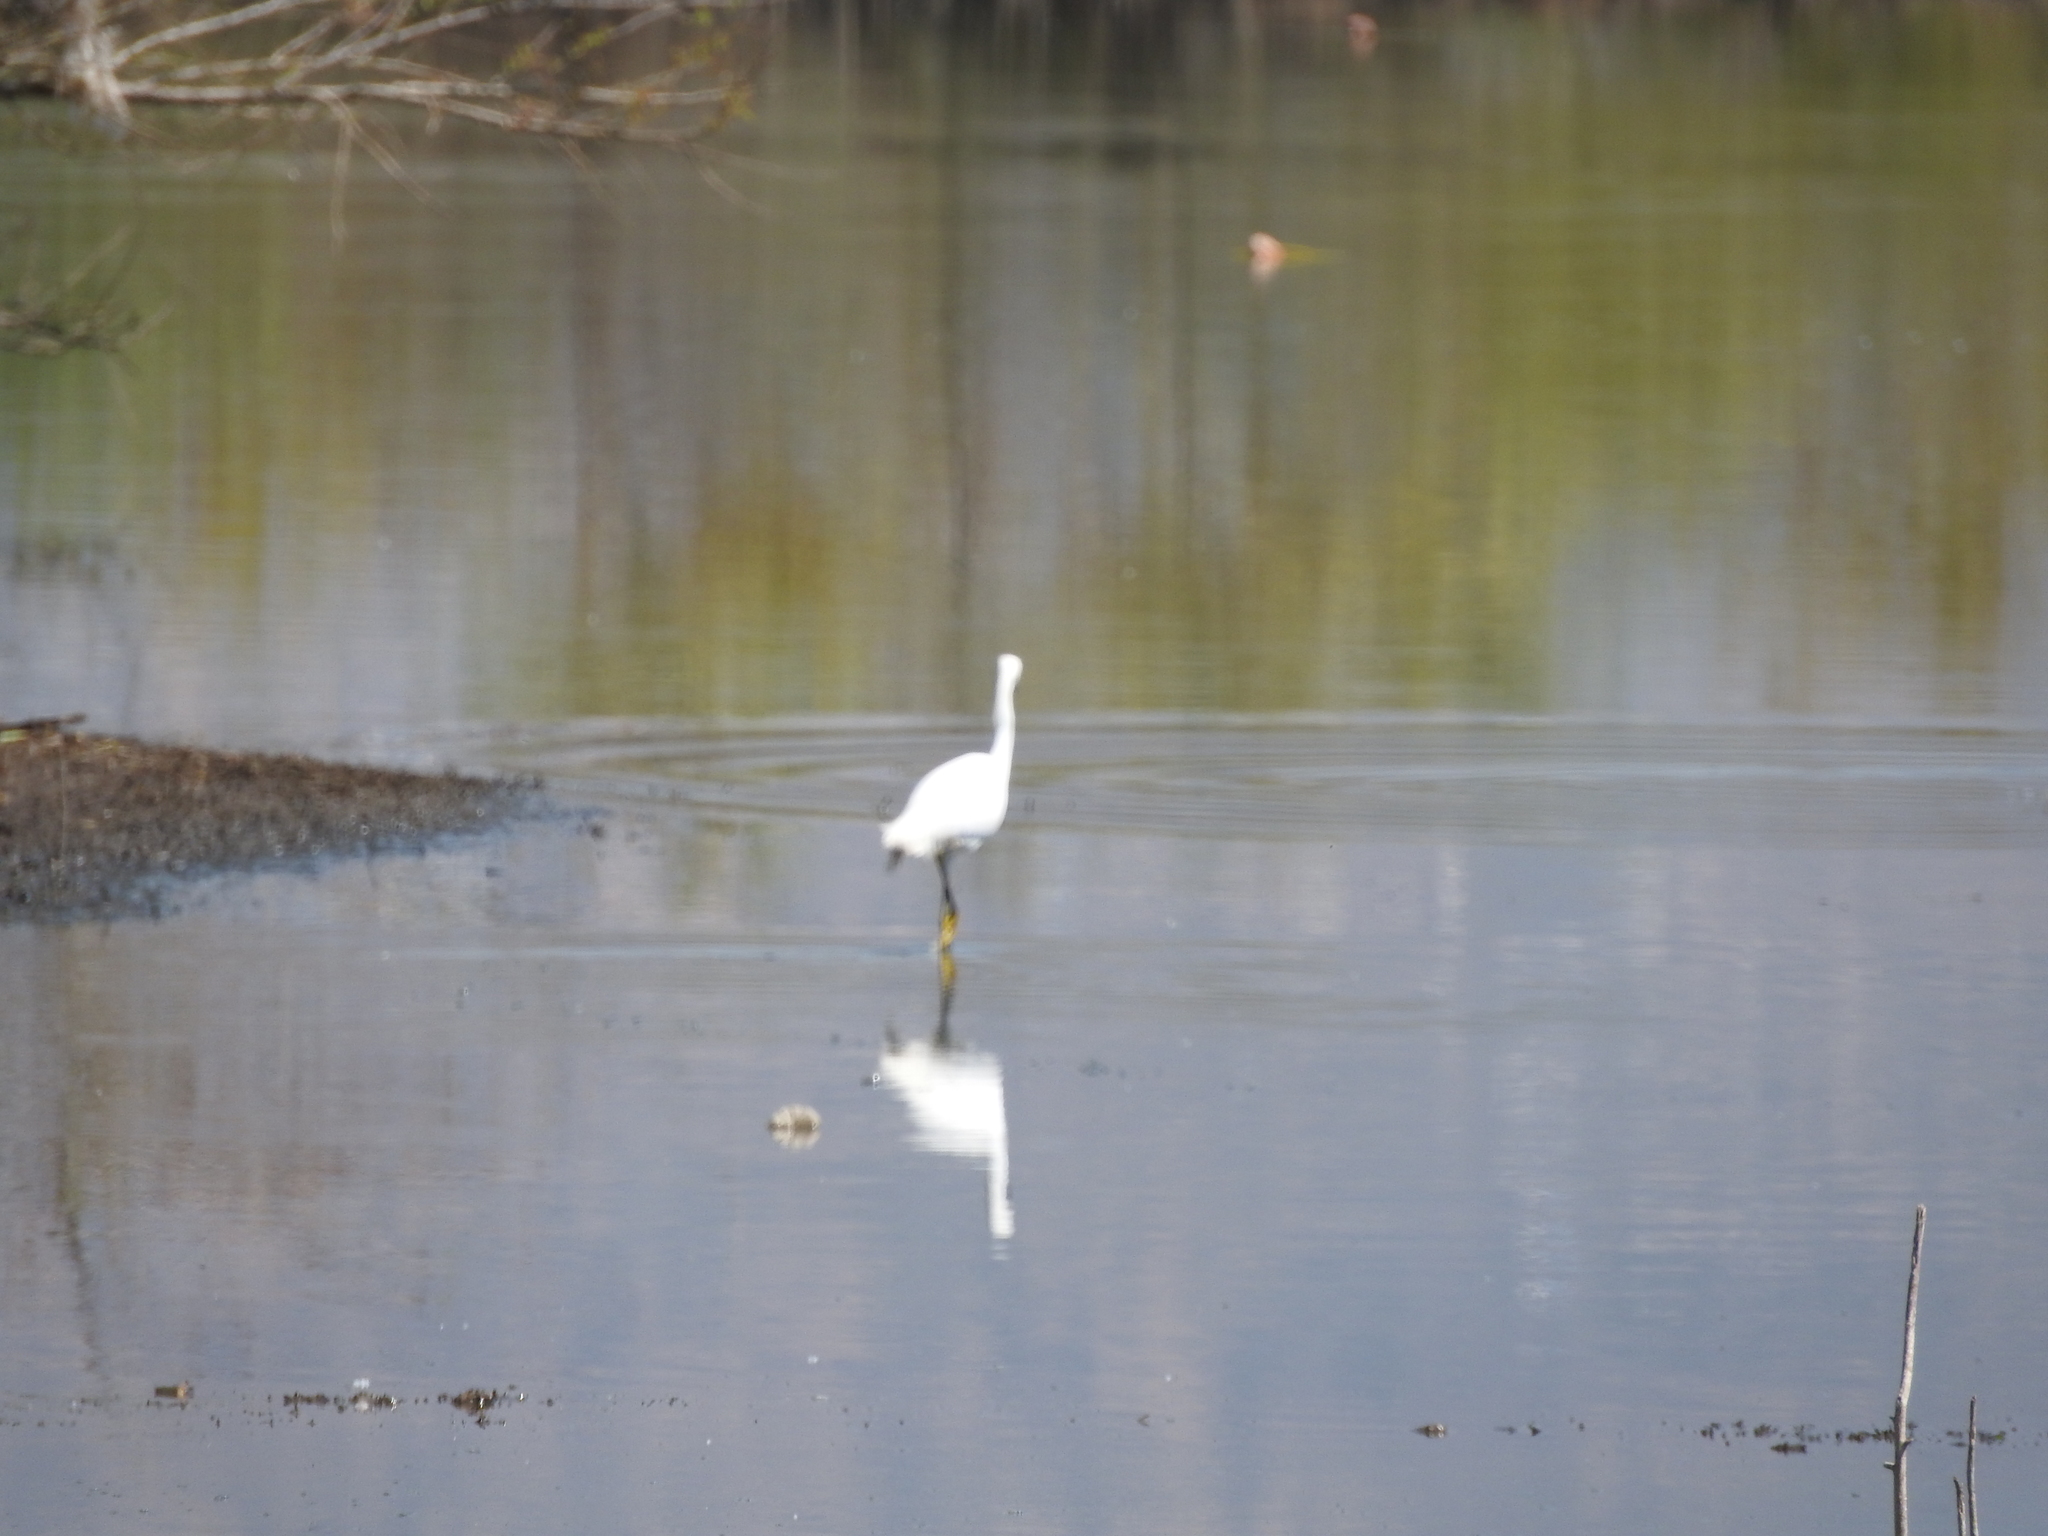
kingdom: Animalia
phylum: Chordata
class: Aves
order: Pelecaniformes
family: Ardeidae
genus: Egretta
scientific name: Egretta thula
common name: Snowy egret
